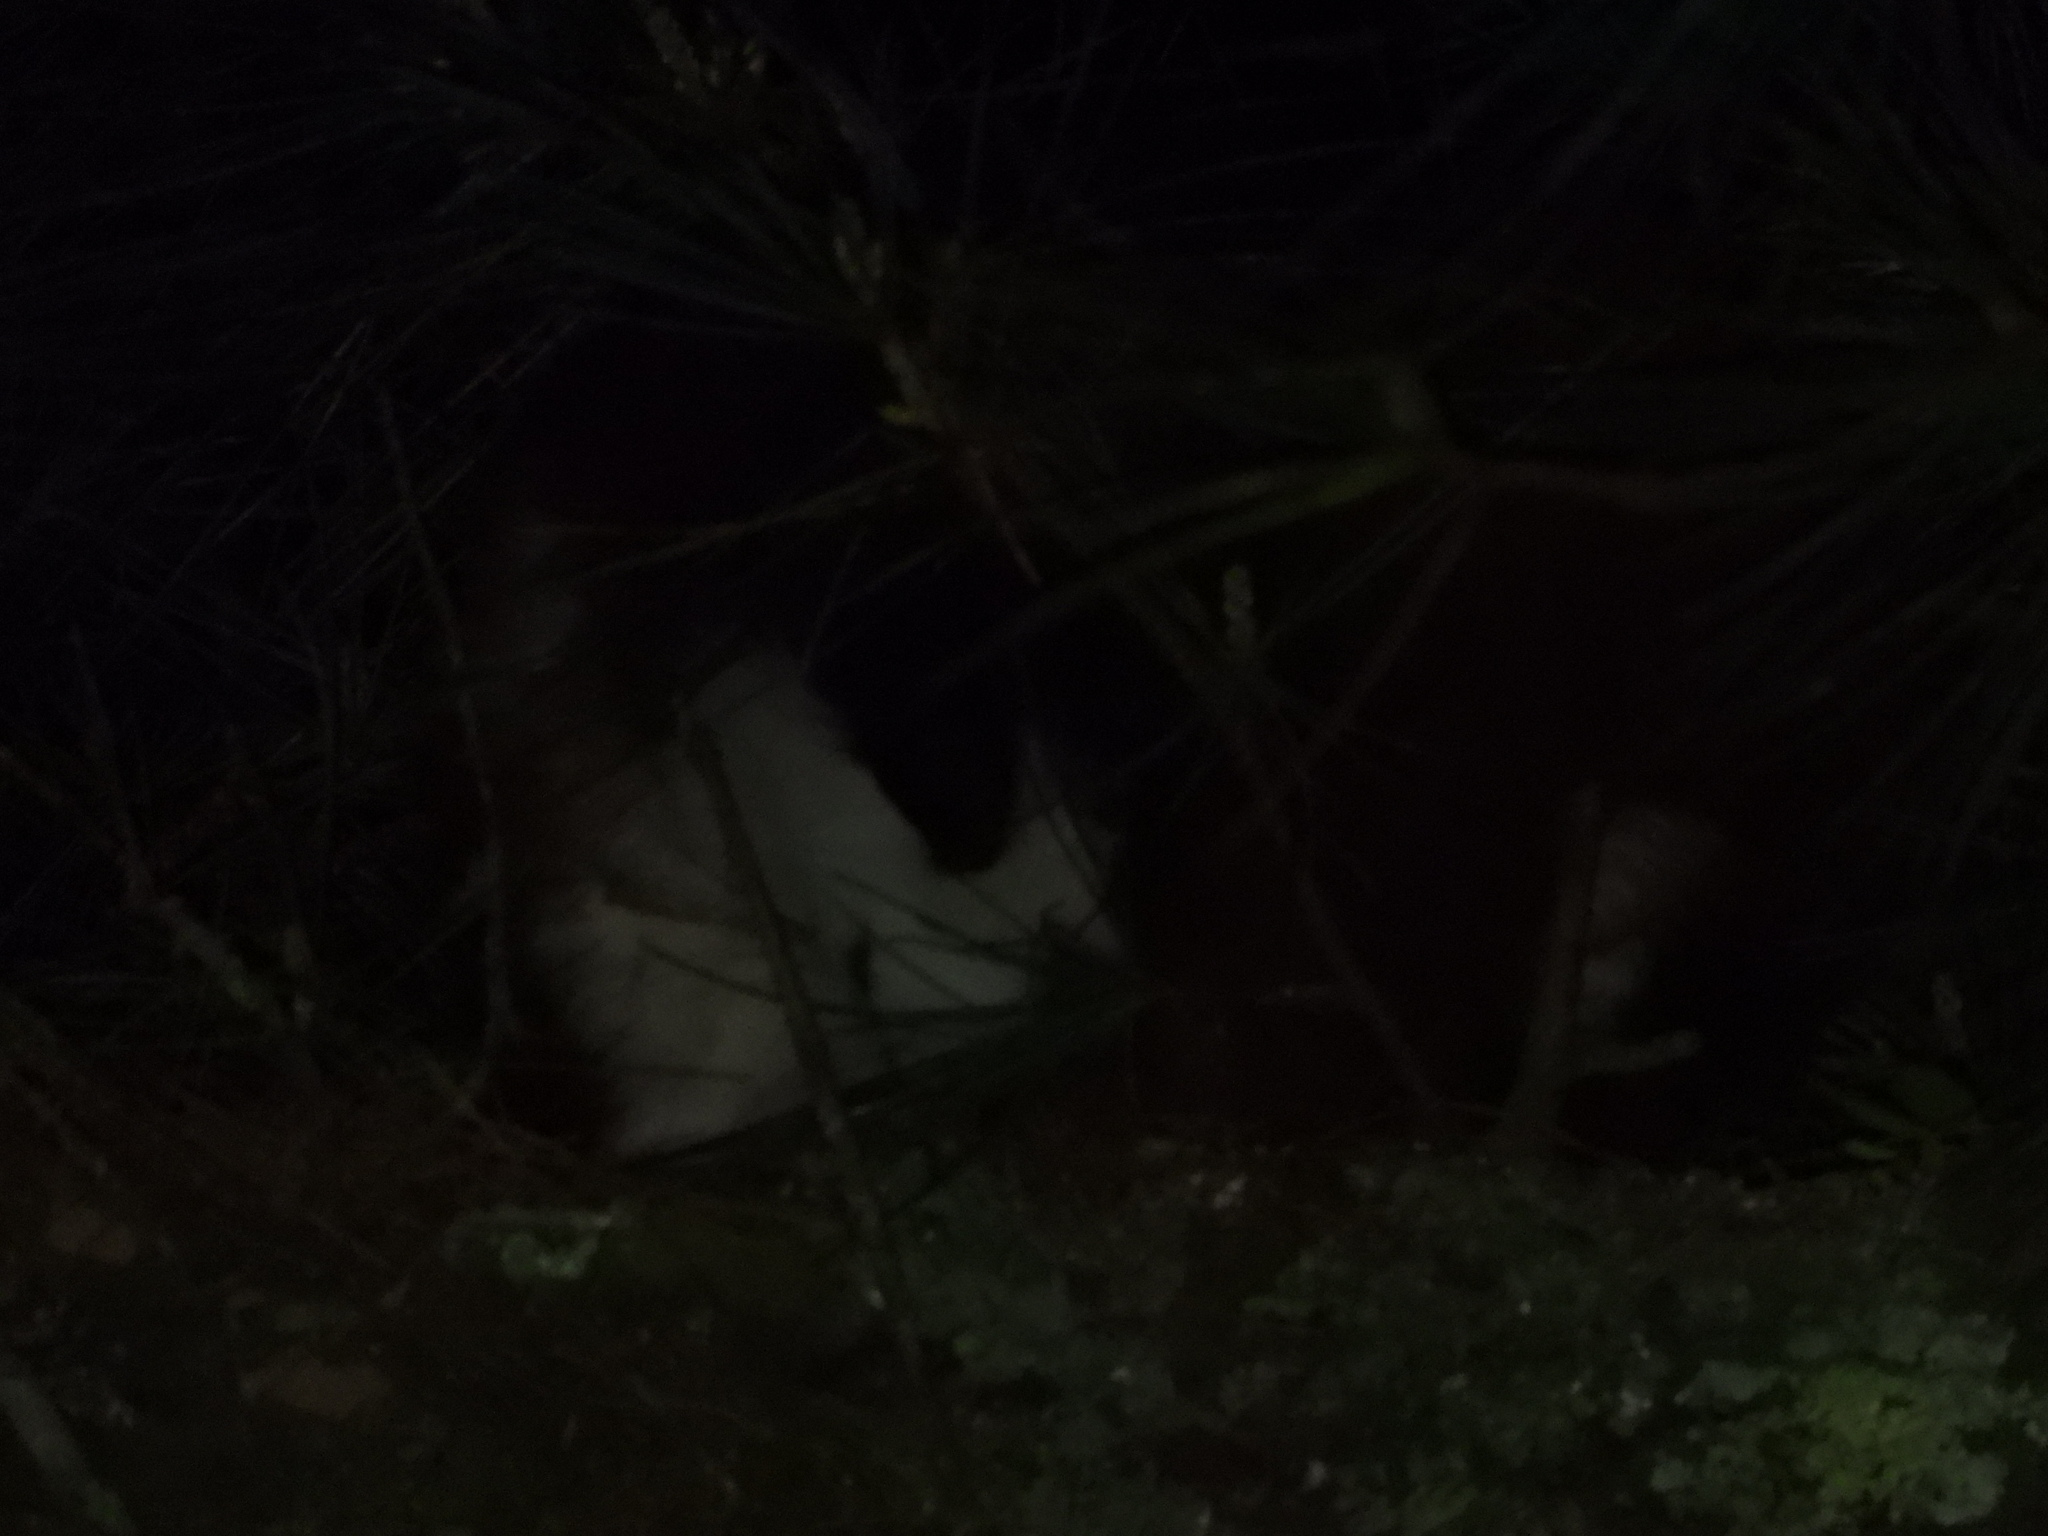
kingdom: Animalia
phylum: Chordata
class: Mammalia
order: Rodentia
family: Sciuridae
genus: Petaurista
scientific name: Petaurista lena
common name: Taiwan giant flying squirrel
